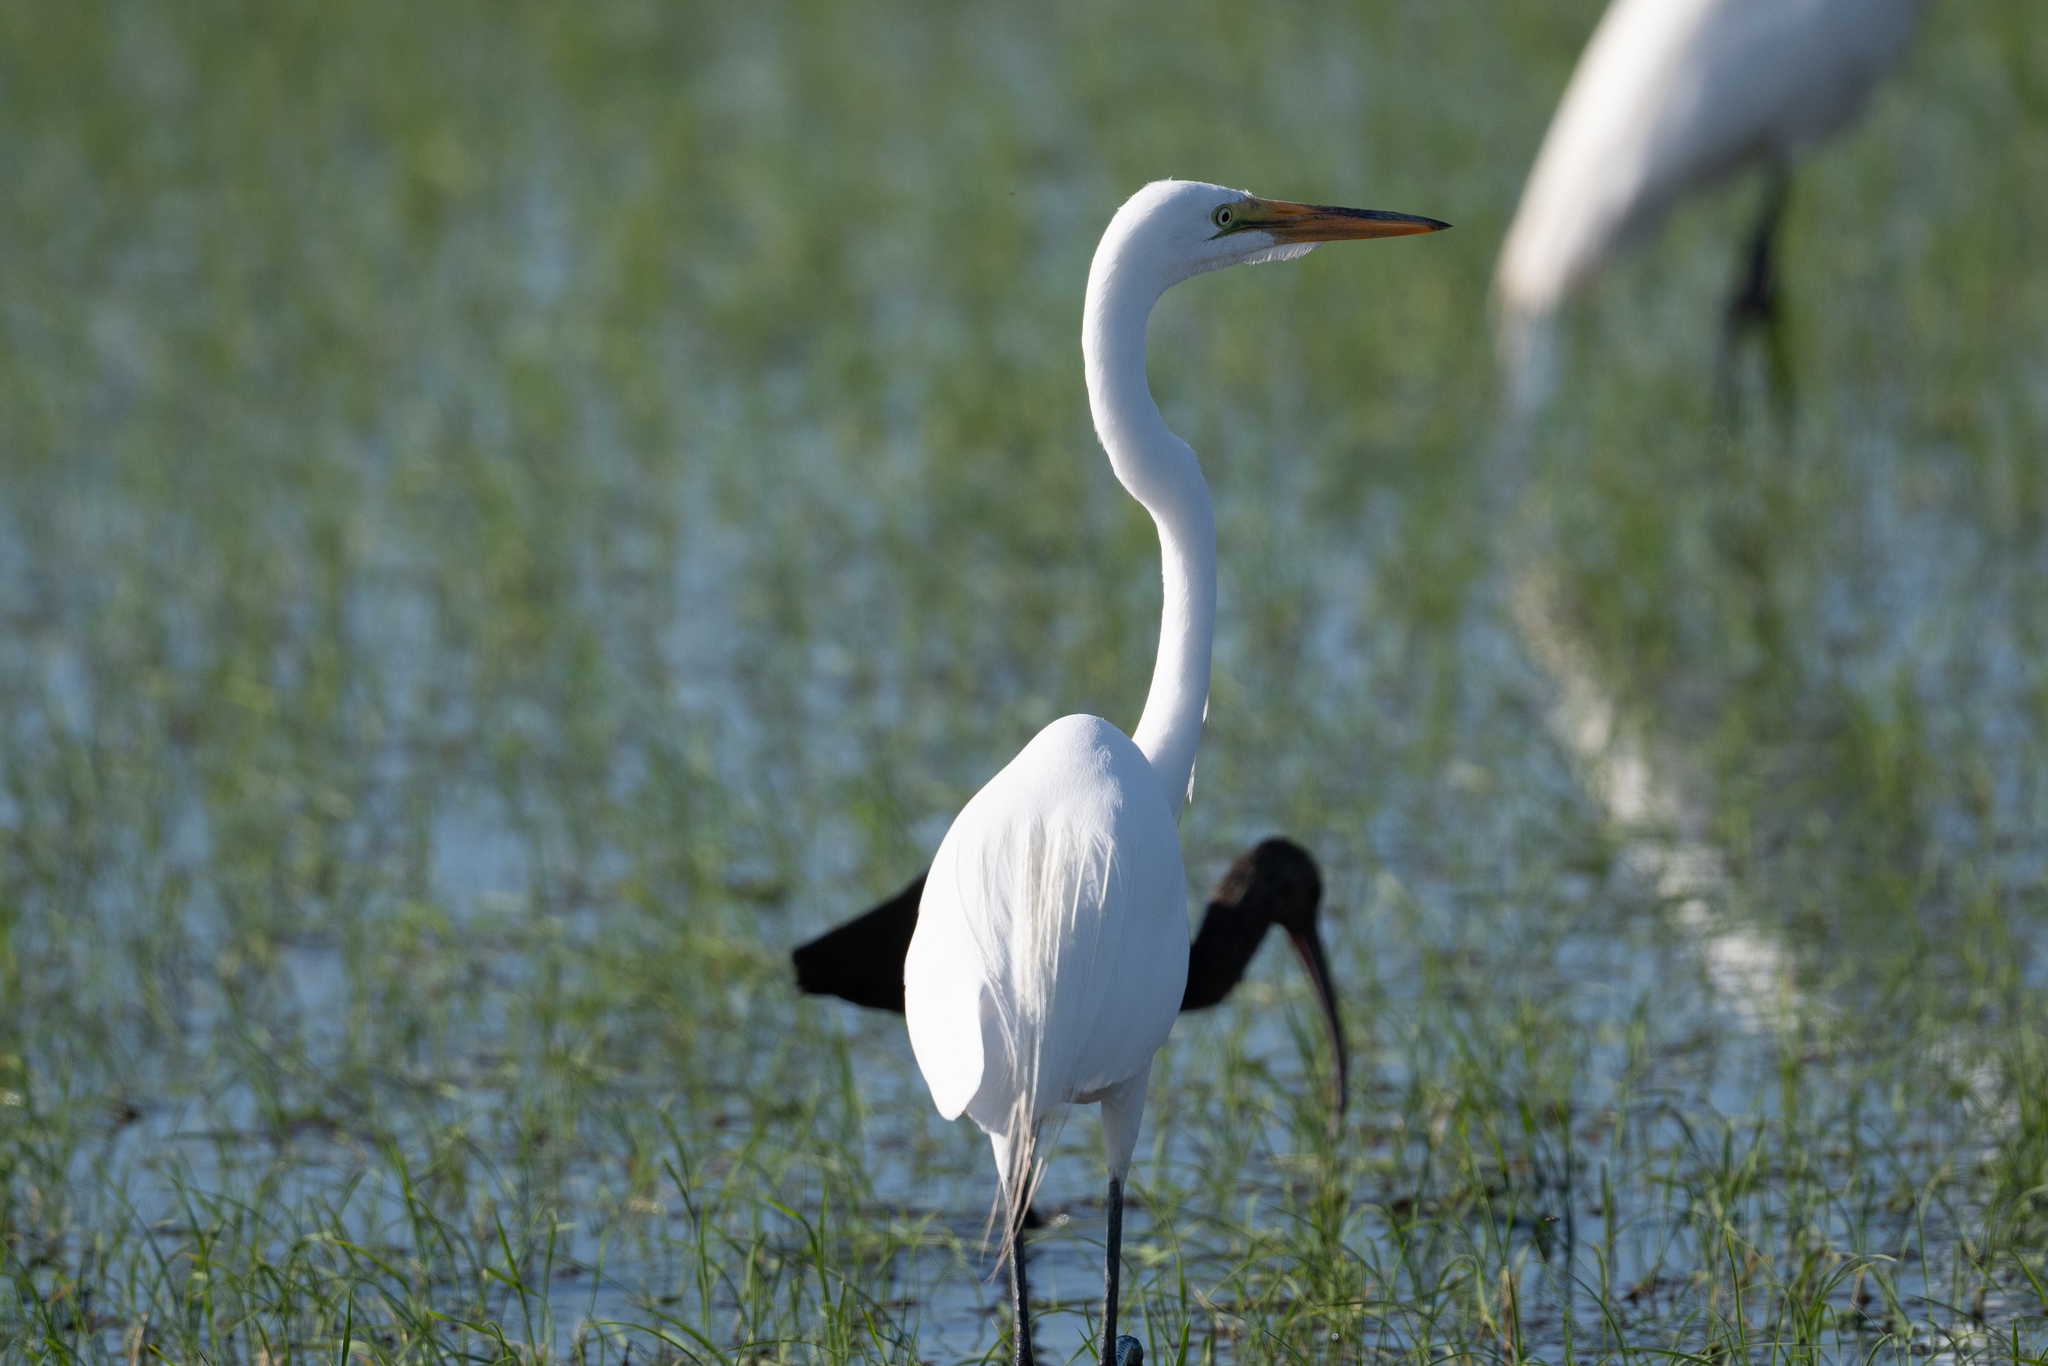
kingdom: Animalia
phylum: Chordata
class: Aves
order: Pelecaniformes
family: Ardeidae
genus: Ardea
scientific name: Ardea alba
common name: Great egret
